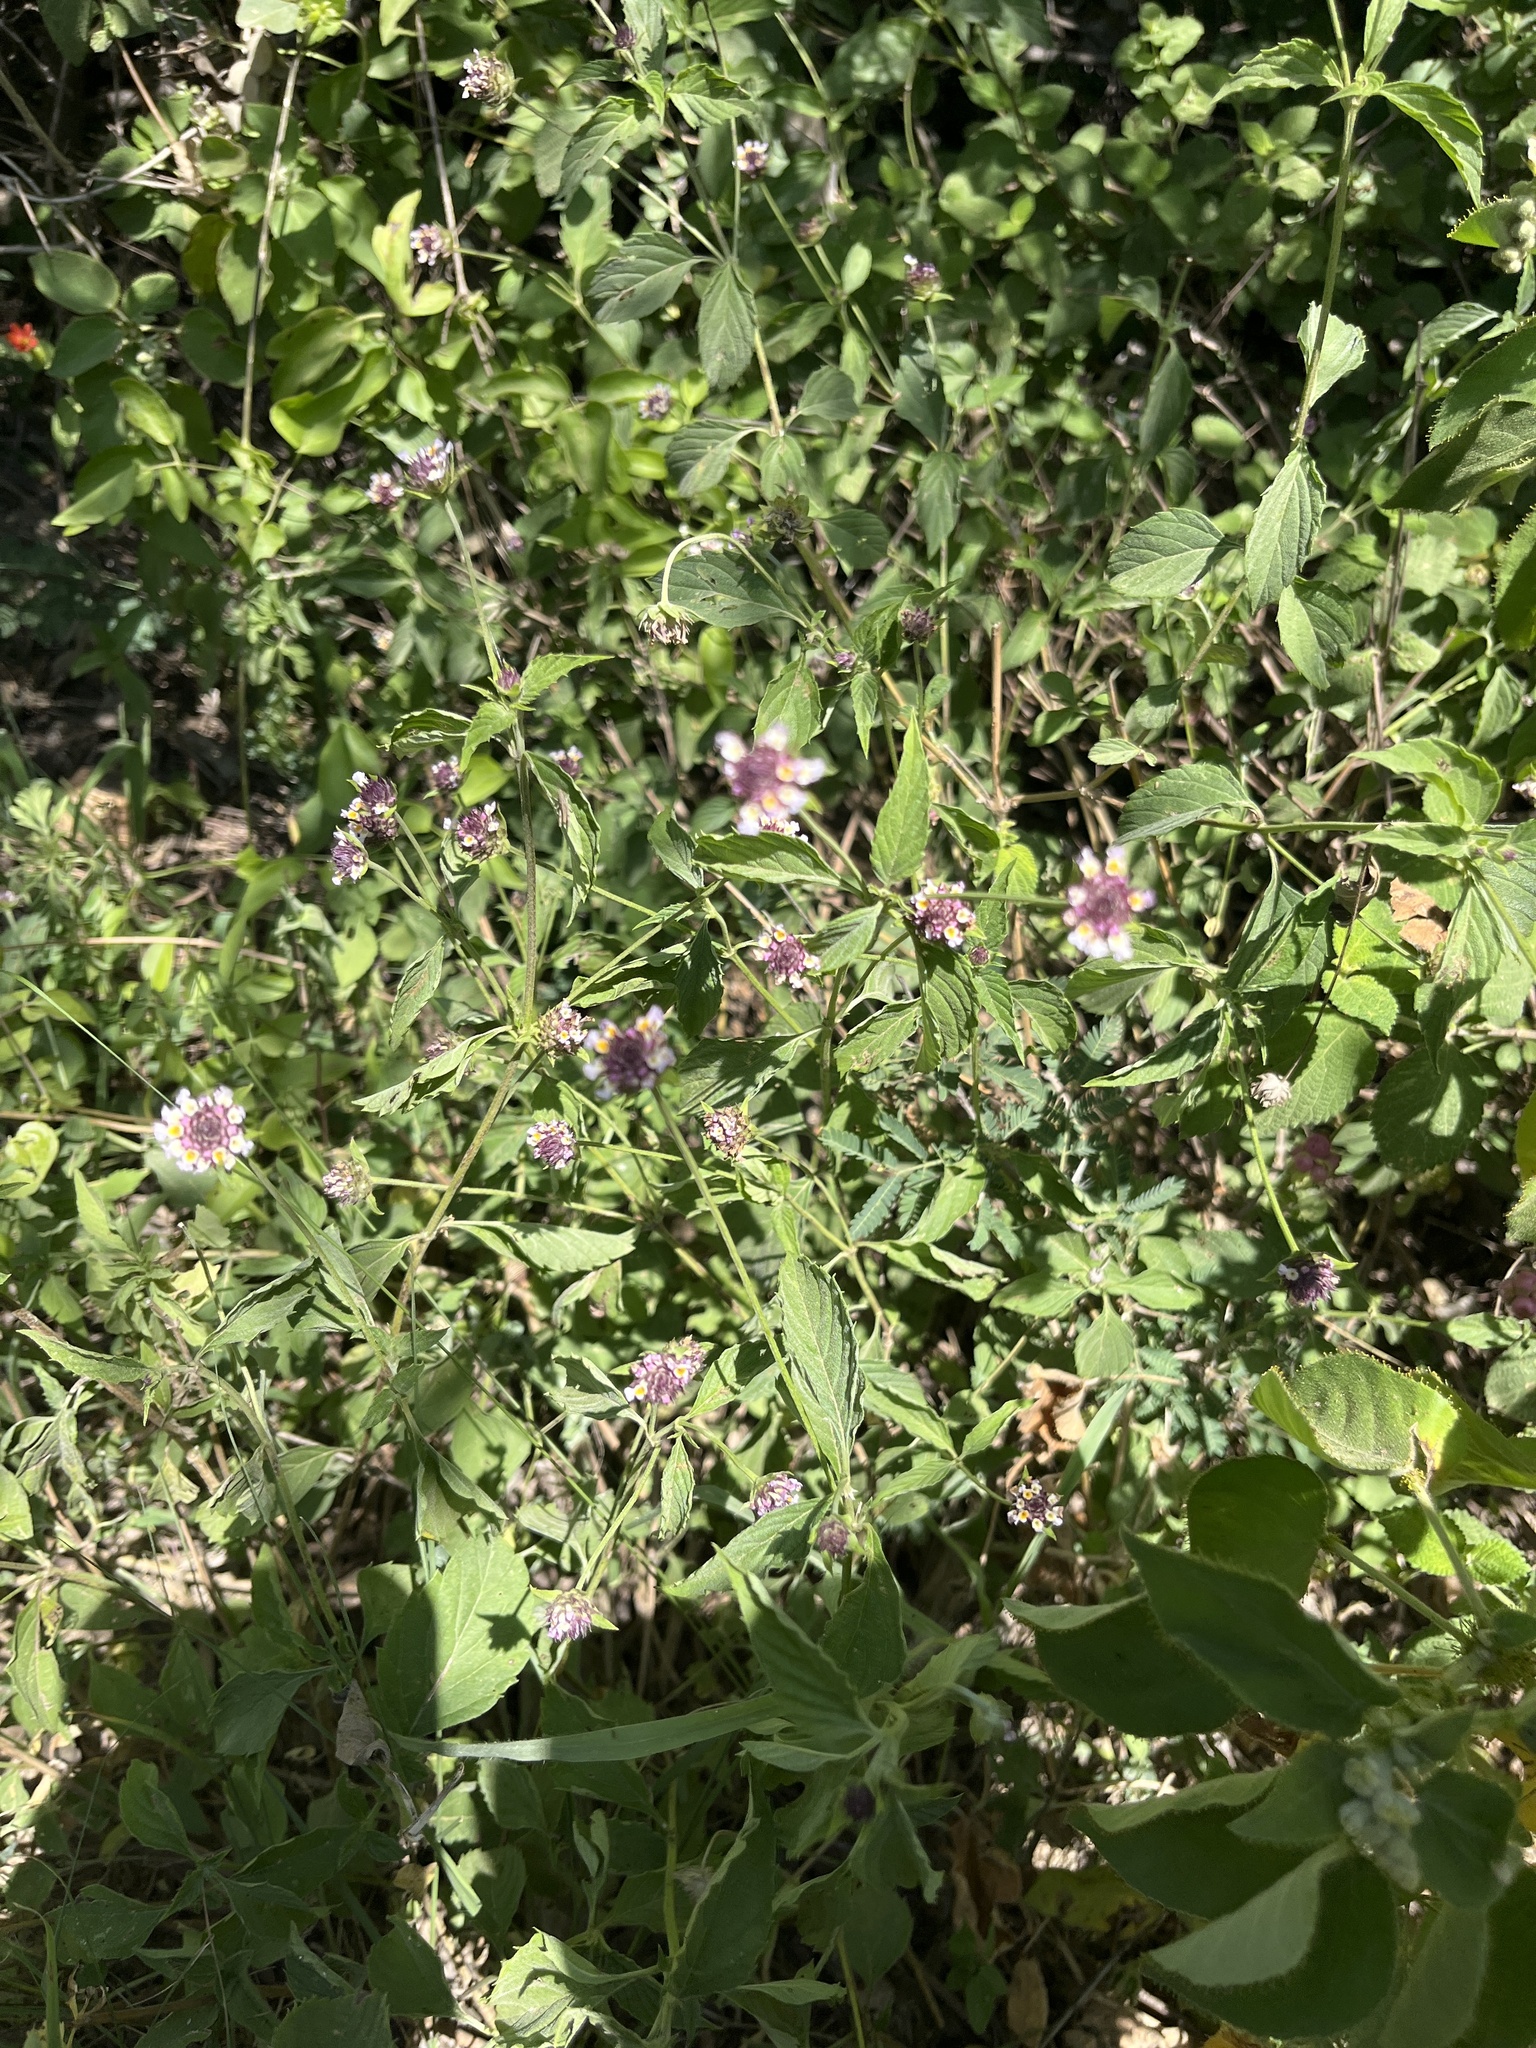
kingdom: Plantae
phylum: Tracheophyta
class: Magnoliopsida
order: Lamiales
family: Verbenaceae
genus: Lantana
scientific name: Lantana achyranthifolia
